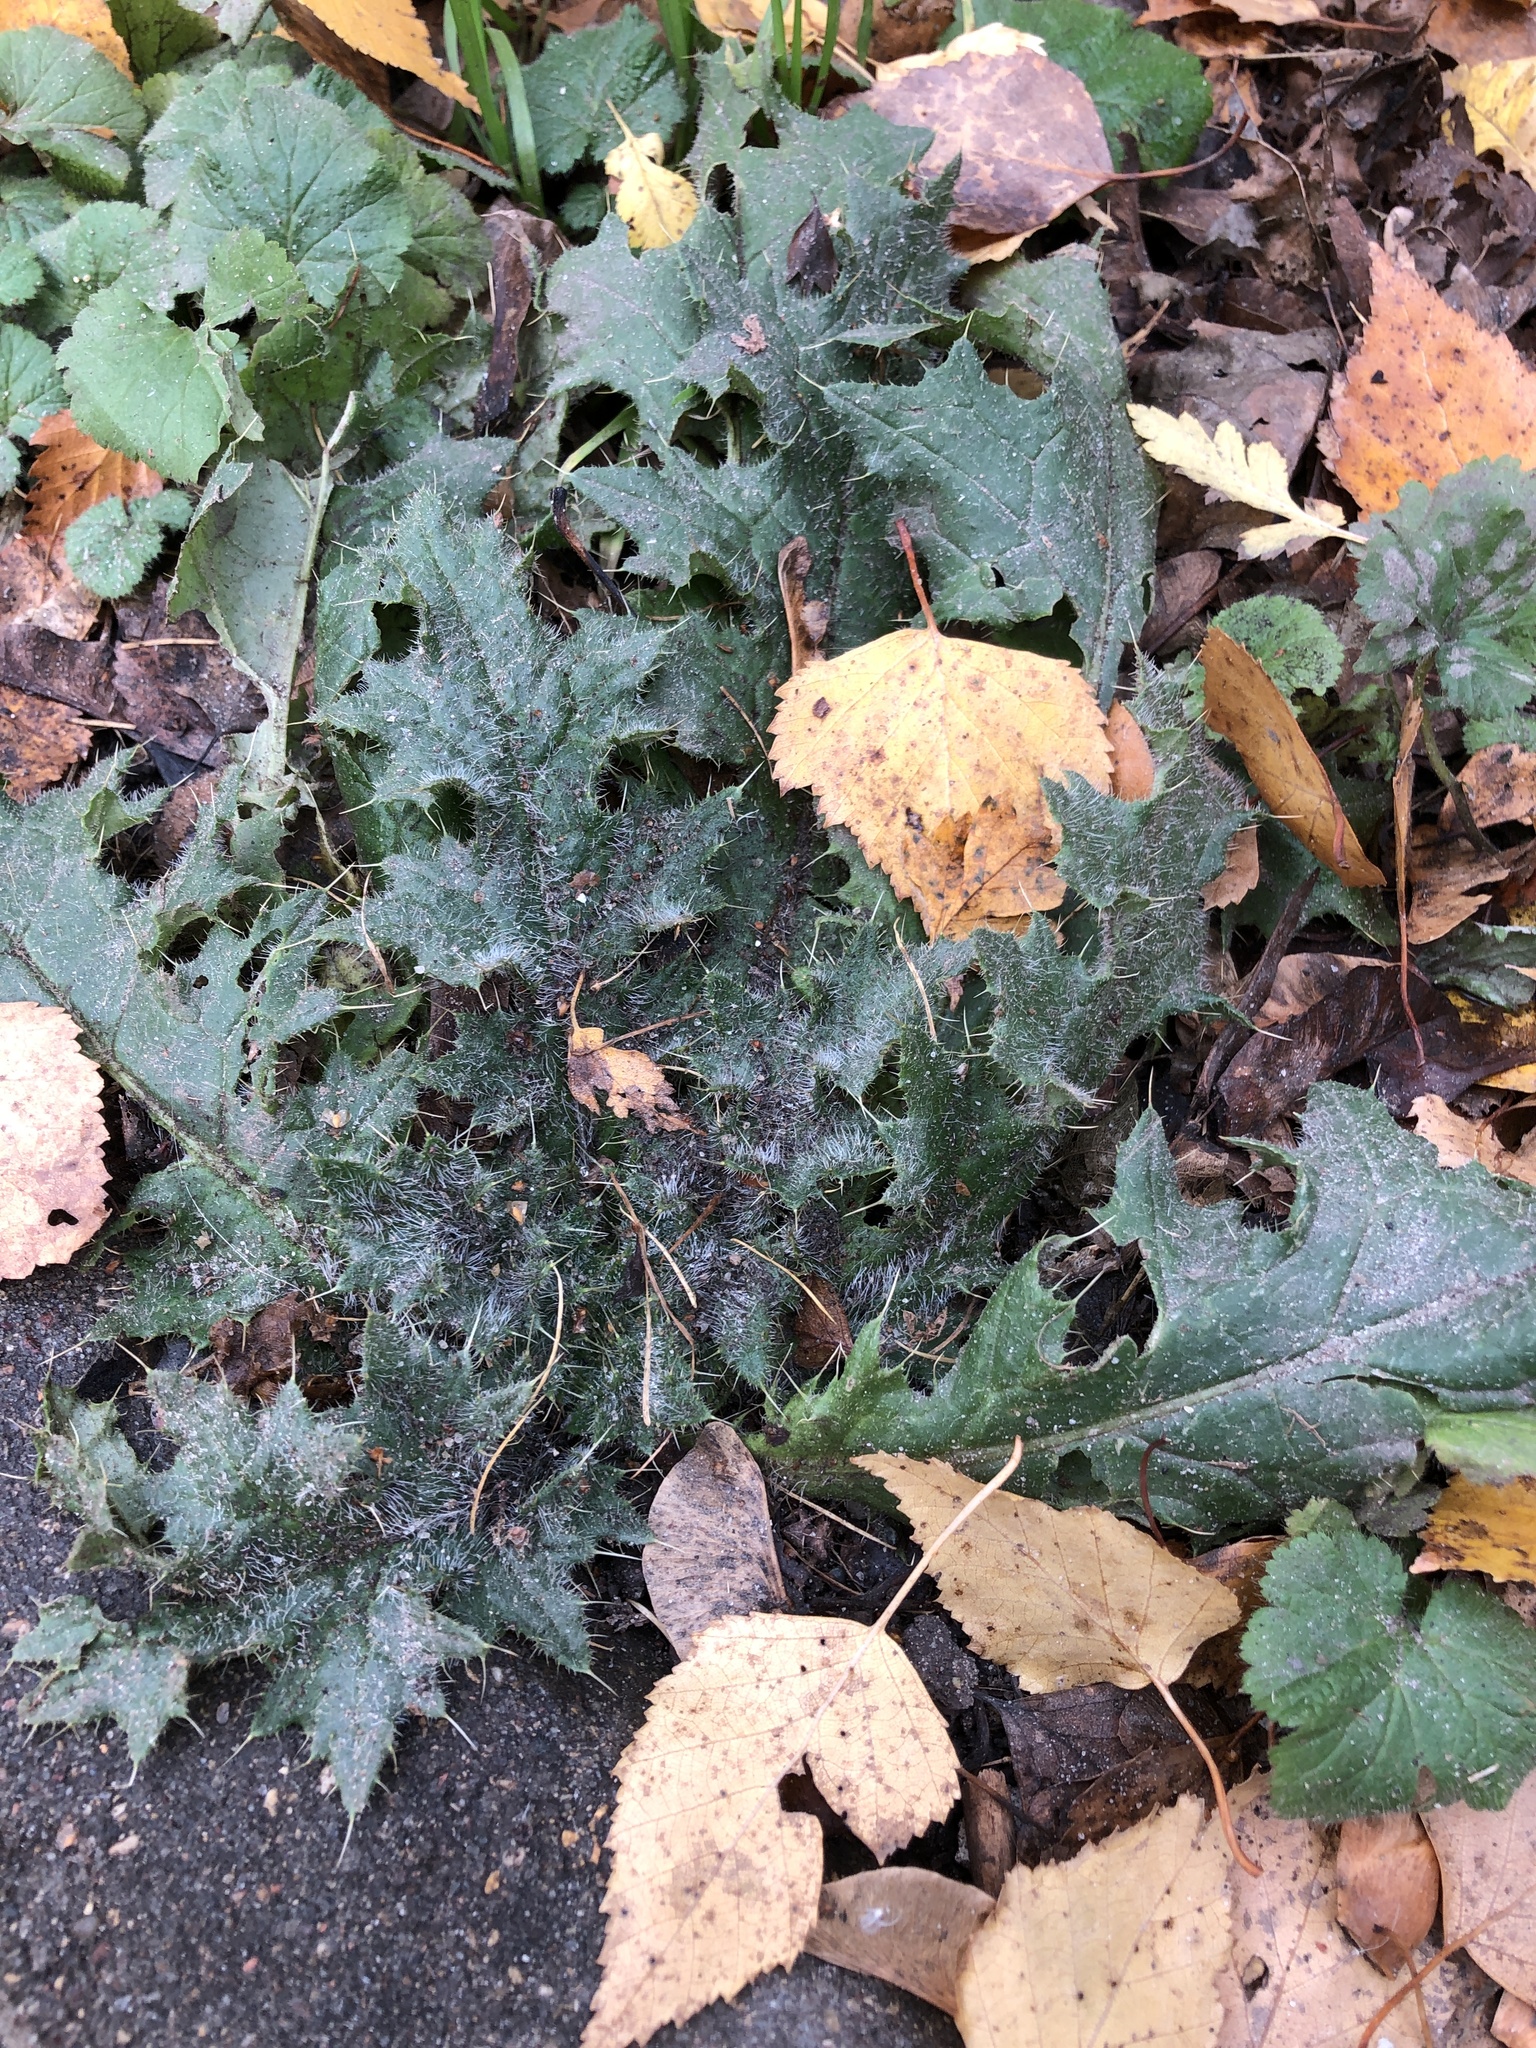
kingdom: Plantae
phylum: Tracheophyta
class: Magnoliopsida
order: Asterales
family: Asteraceae
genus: Cirsium
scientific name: Cirsium vulgare
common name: Bull thistle
